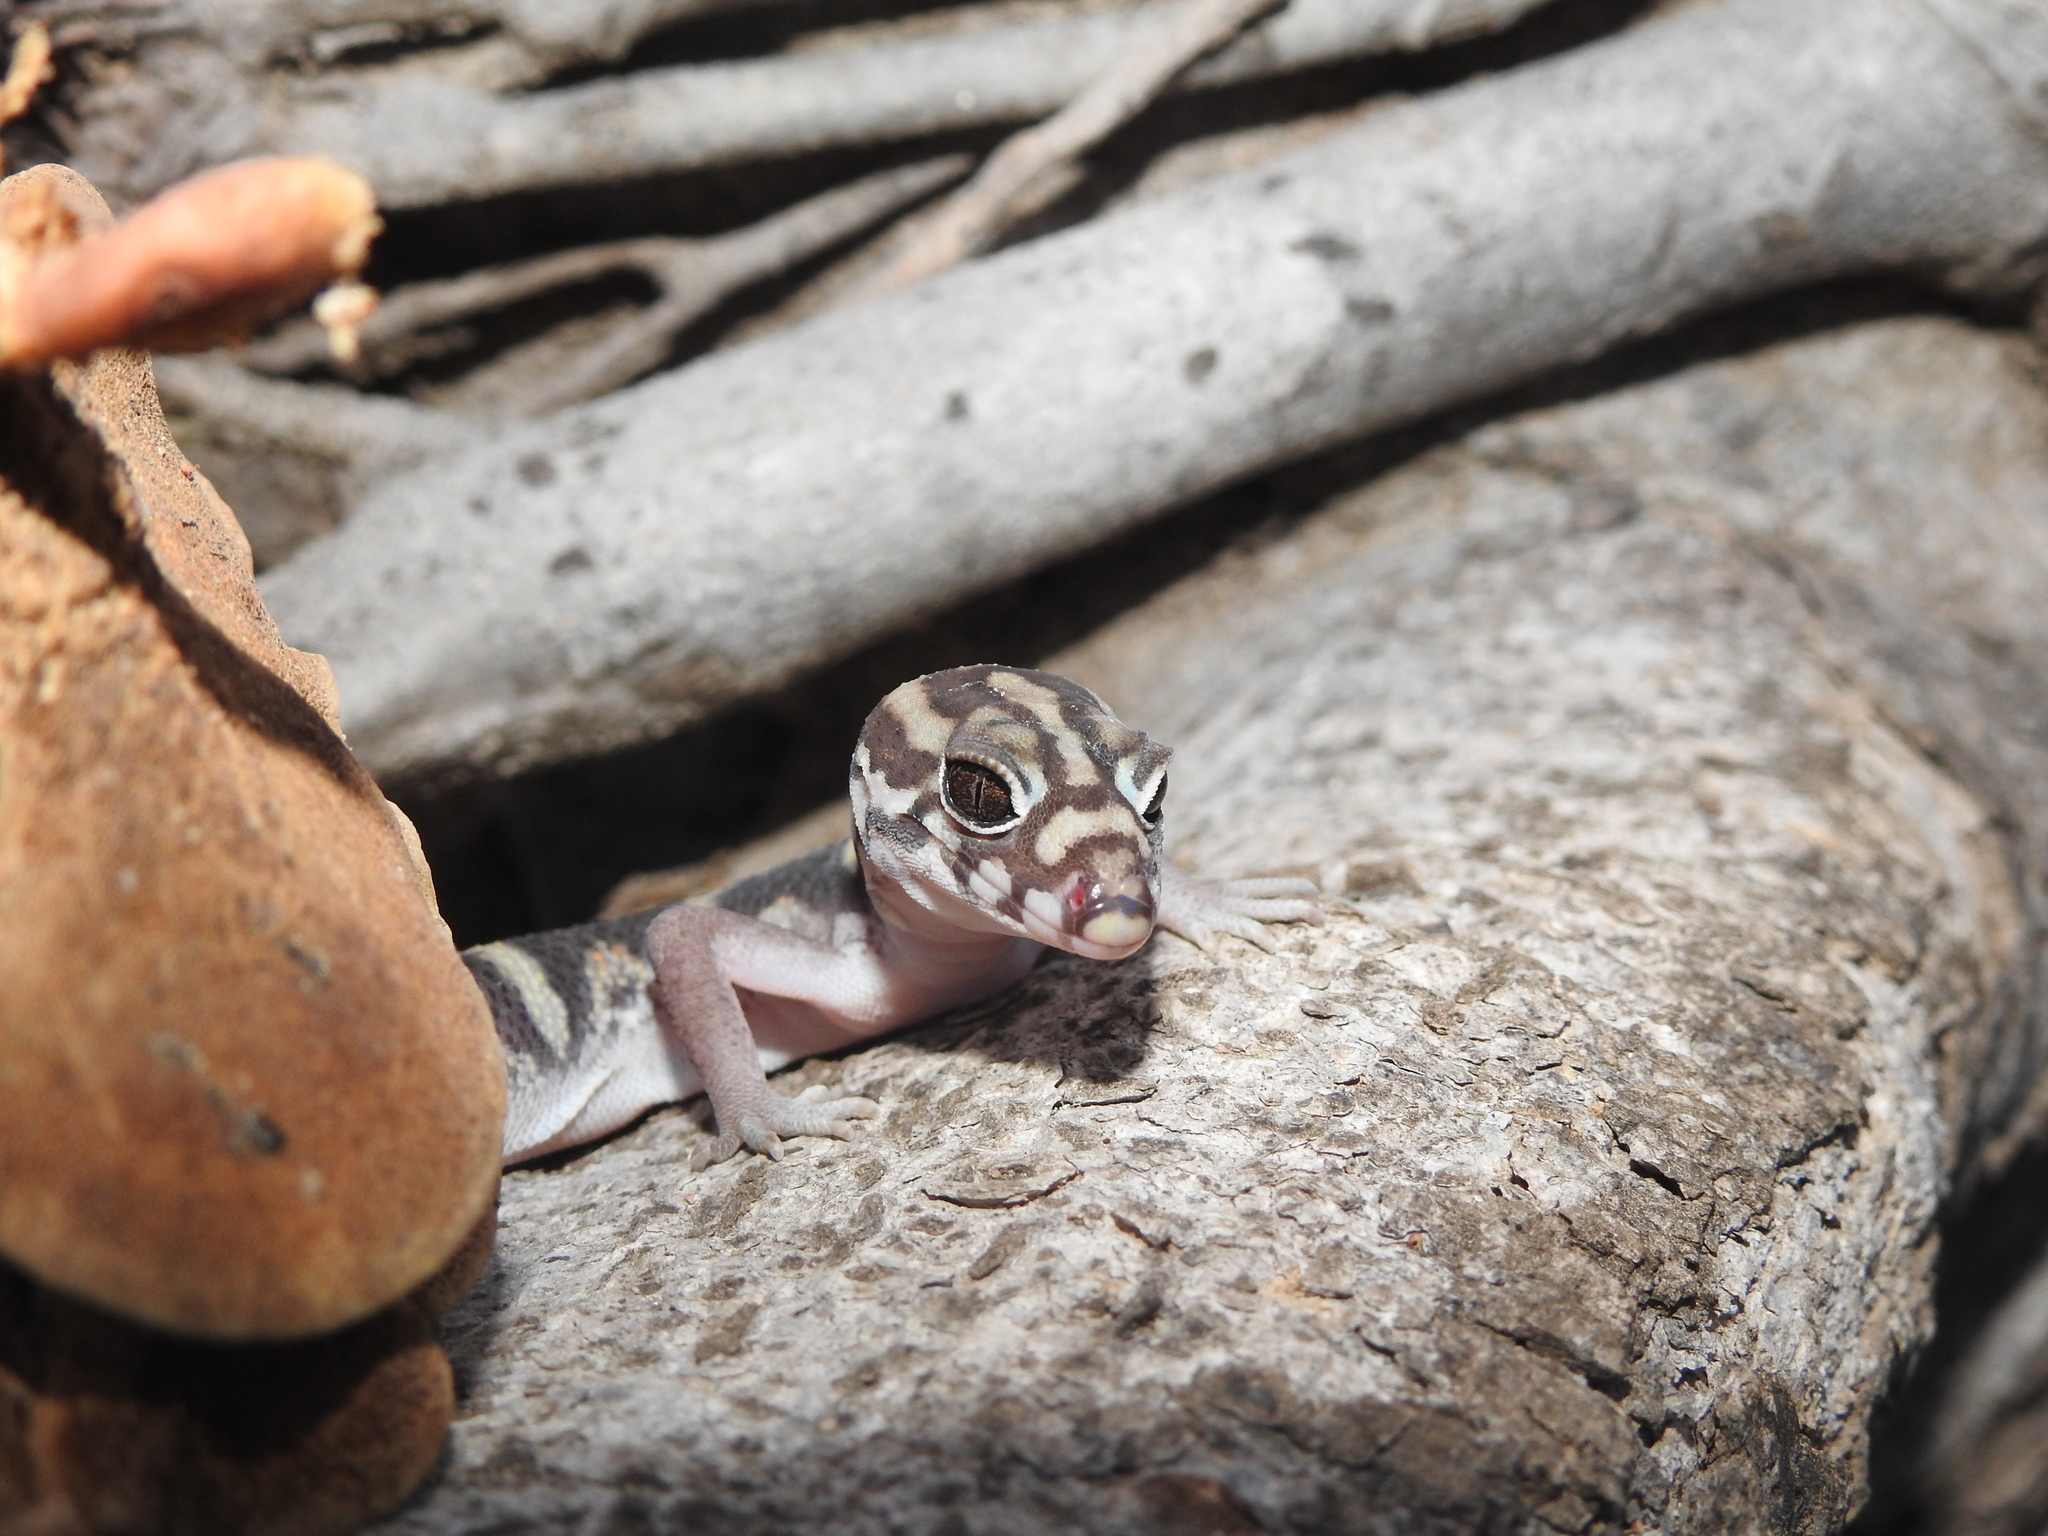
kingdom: Animalia
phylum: Chordata
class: Squamata
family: Eublepharidae
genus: Coleonyx
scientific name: Coleonyx
